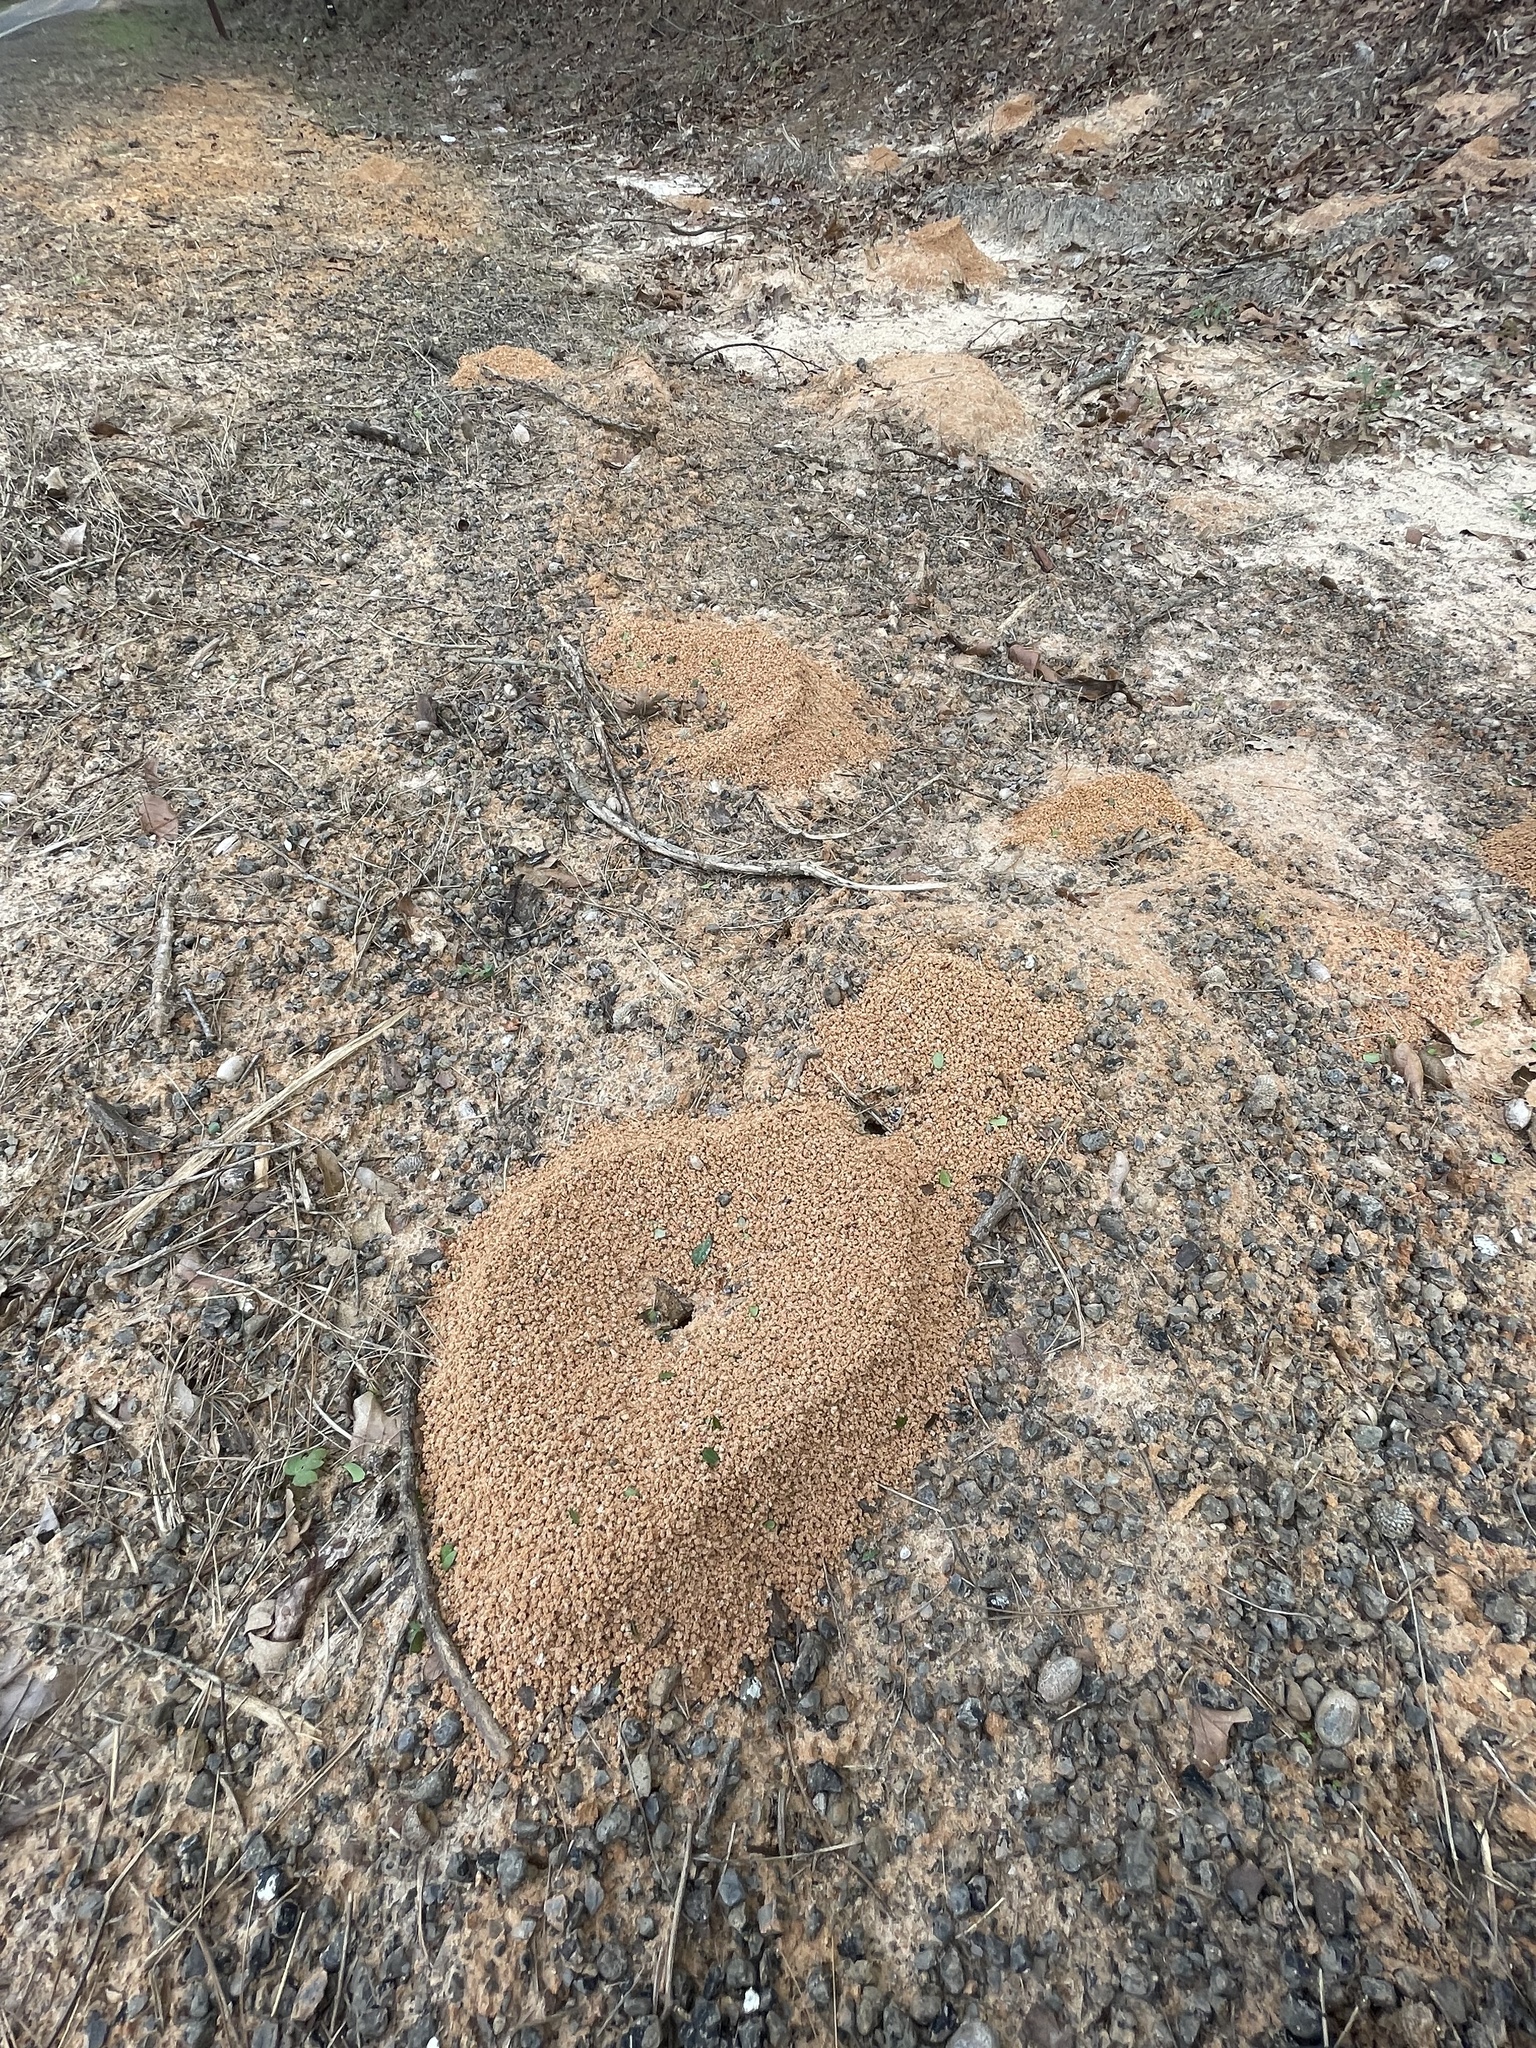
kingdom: Animalia
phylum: Arthropoda
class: Insecta
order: Hymenoptera
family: Formicidae
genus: Atta
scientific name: Atta texana
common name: Texas leafcutting ant
